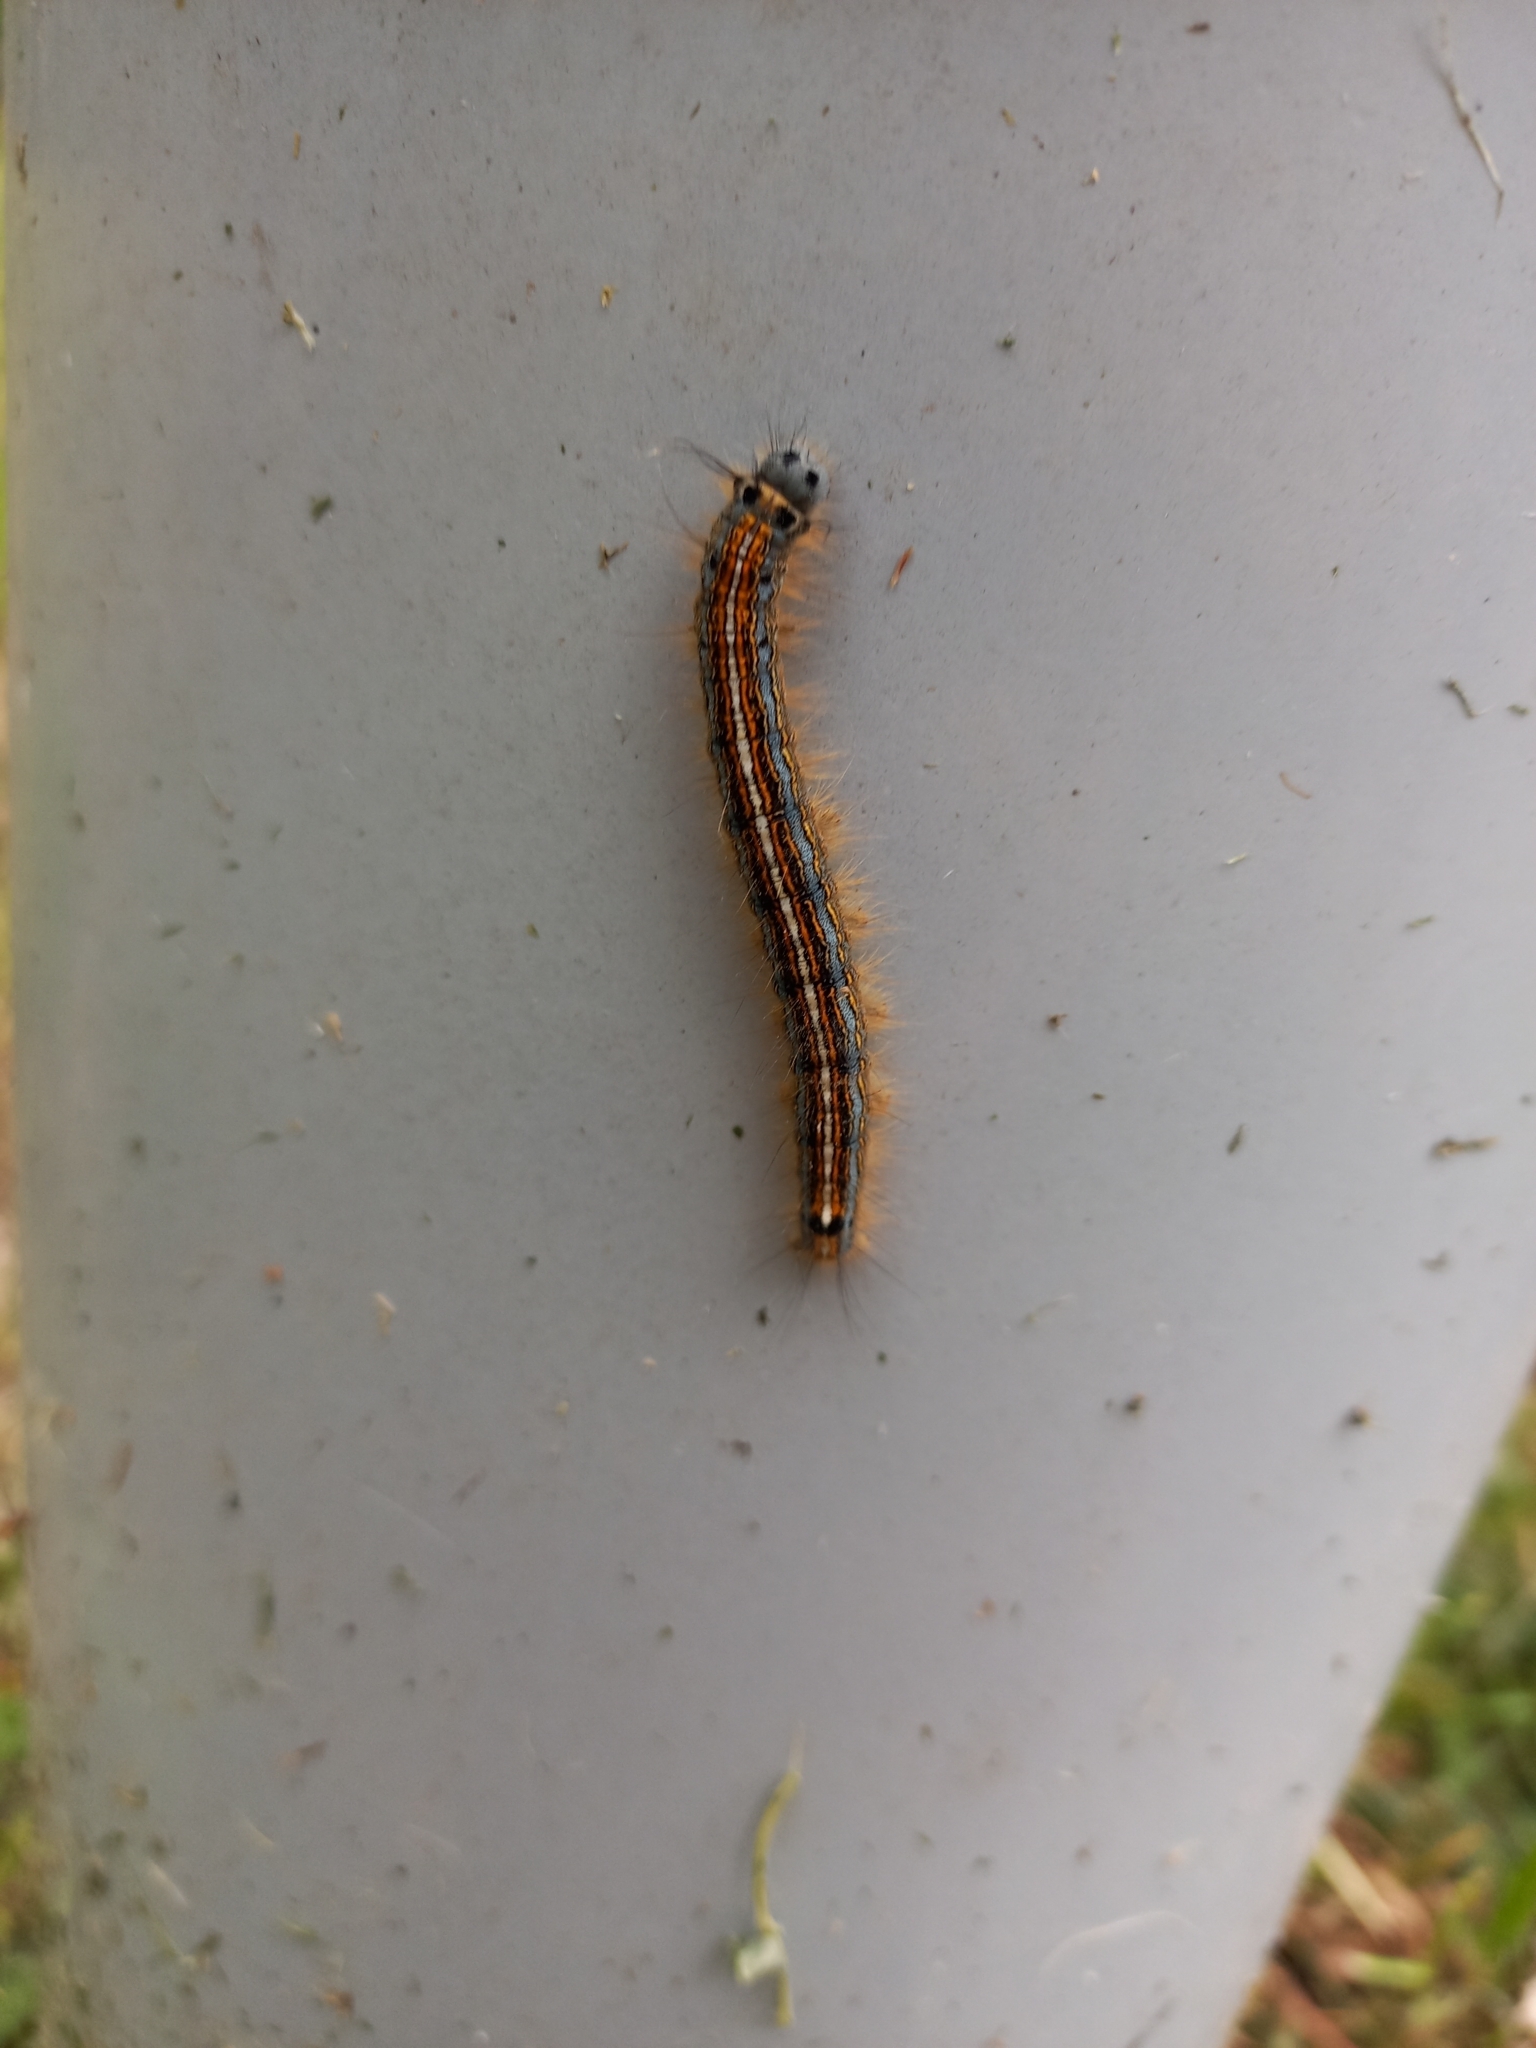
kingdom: Animalia
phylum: Arthropoda
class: Insecta
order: Lepidoptera
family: Lasiocampidae
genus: Malacosoma
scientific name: Malacosoma neustria
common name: The lackey
